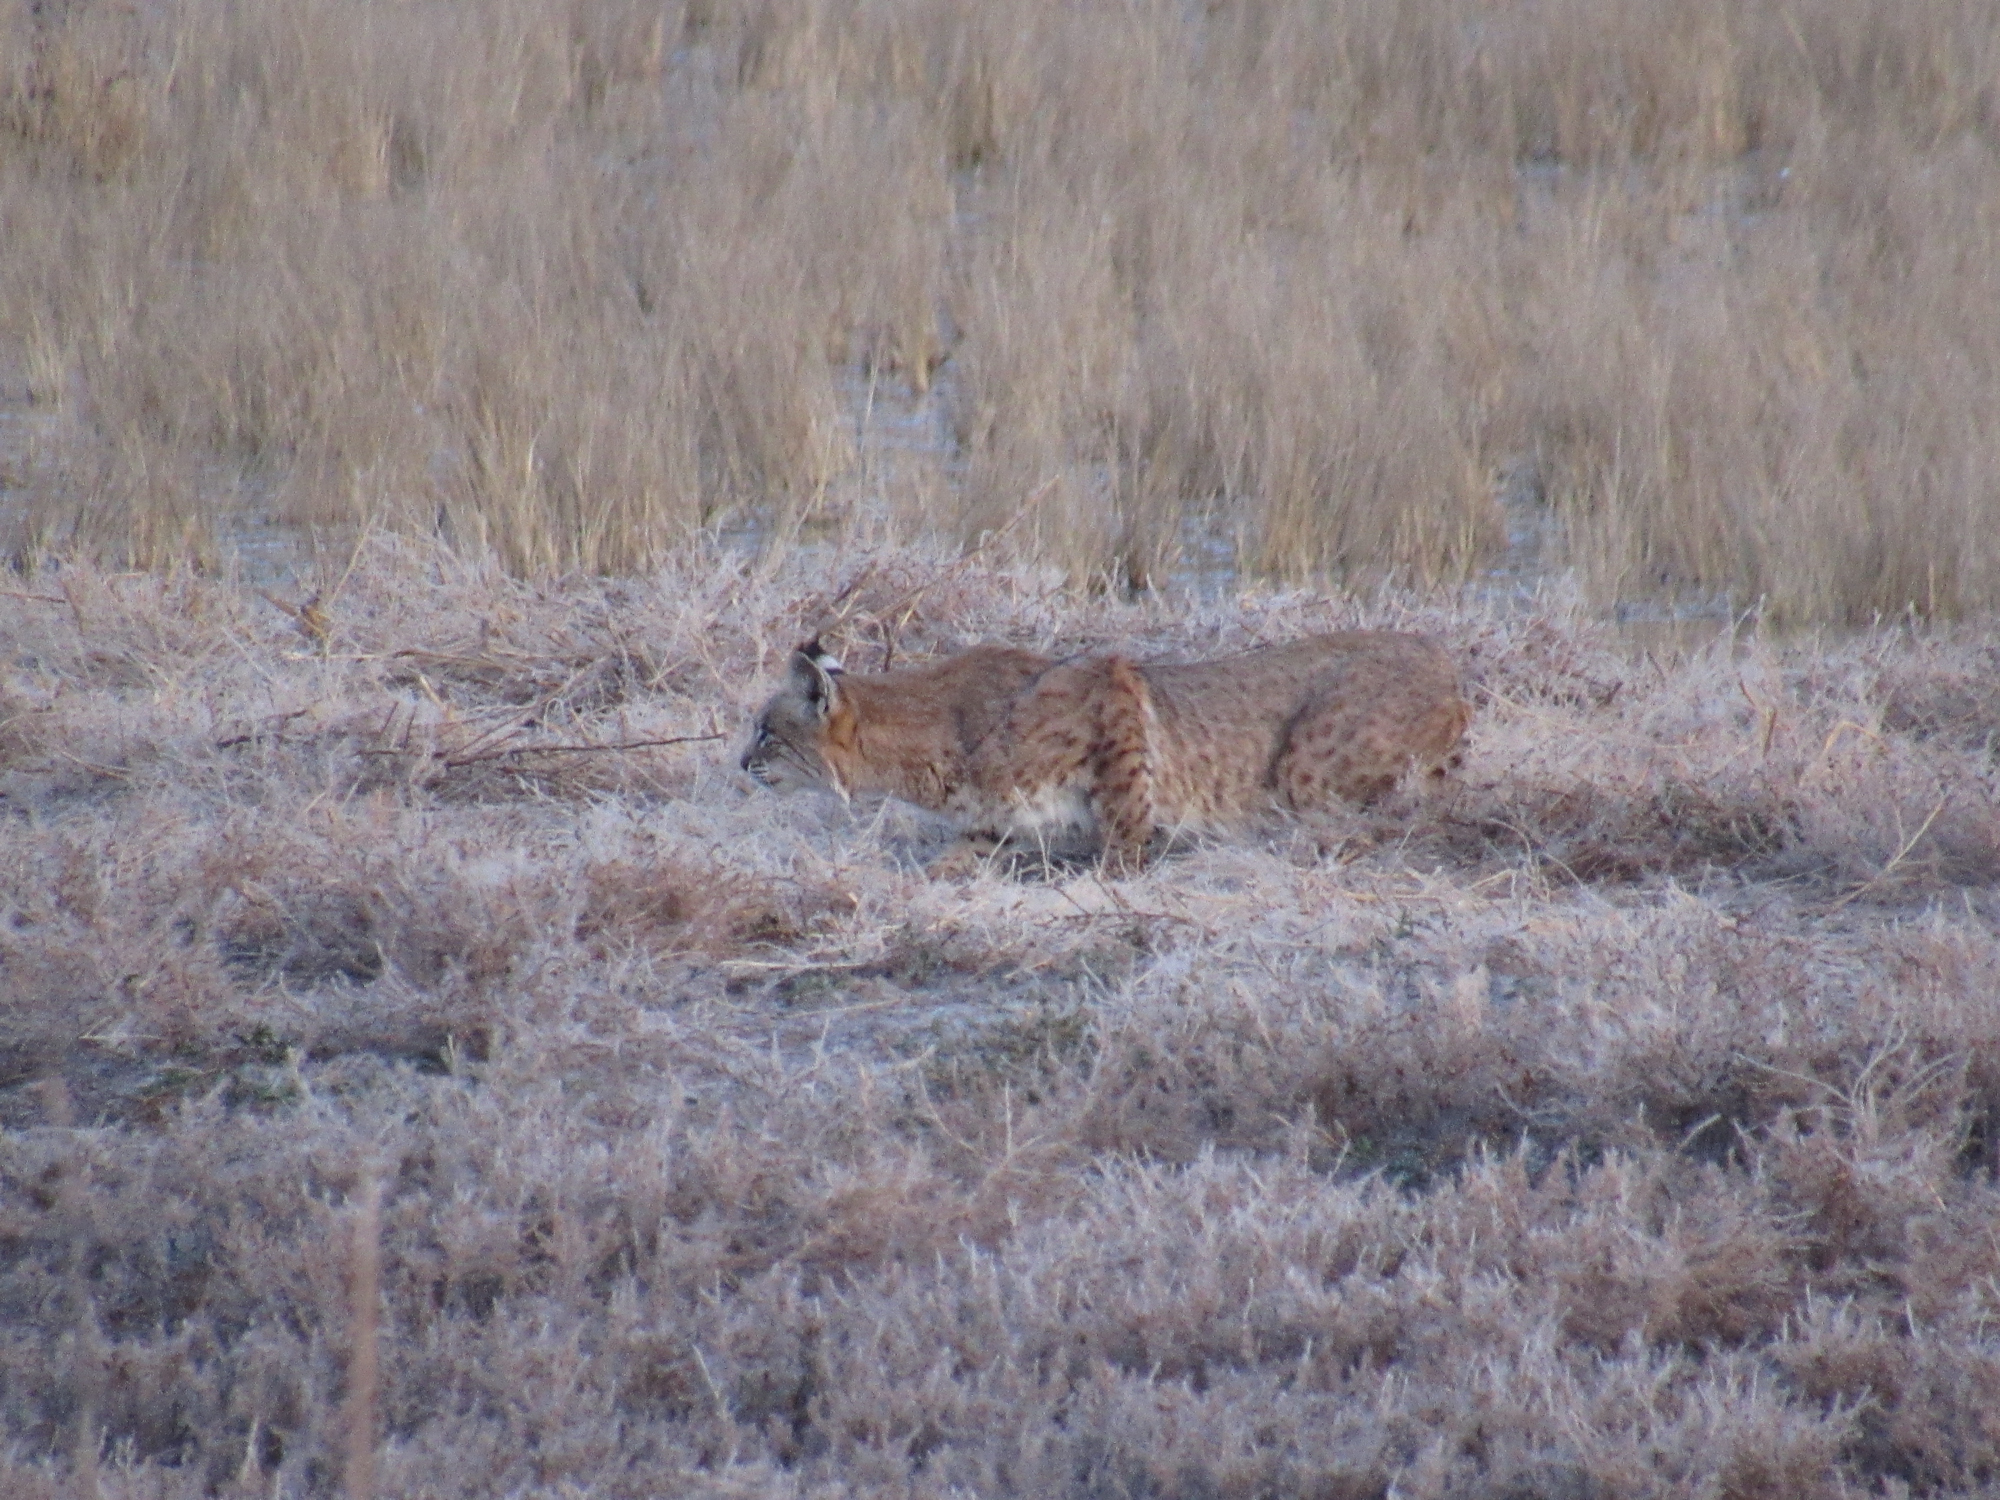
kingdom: Animalia
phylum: Chordata
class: Mammalia
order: Carnivora
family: Felidae
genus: Lynx
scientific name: Lynx rufus
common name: Bobcat
